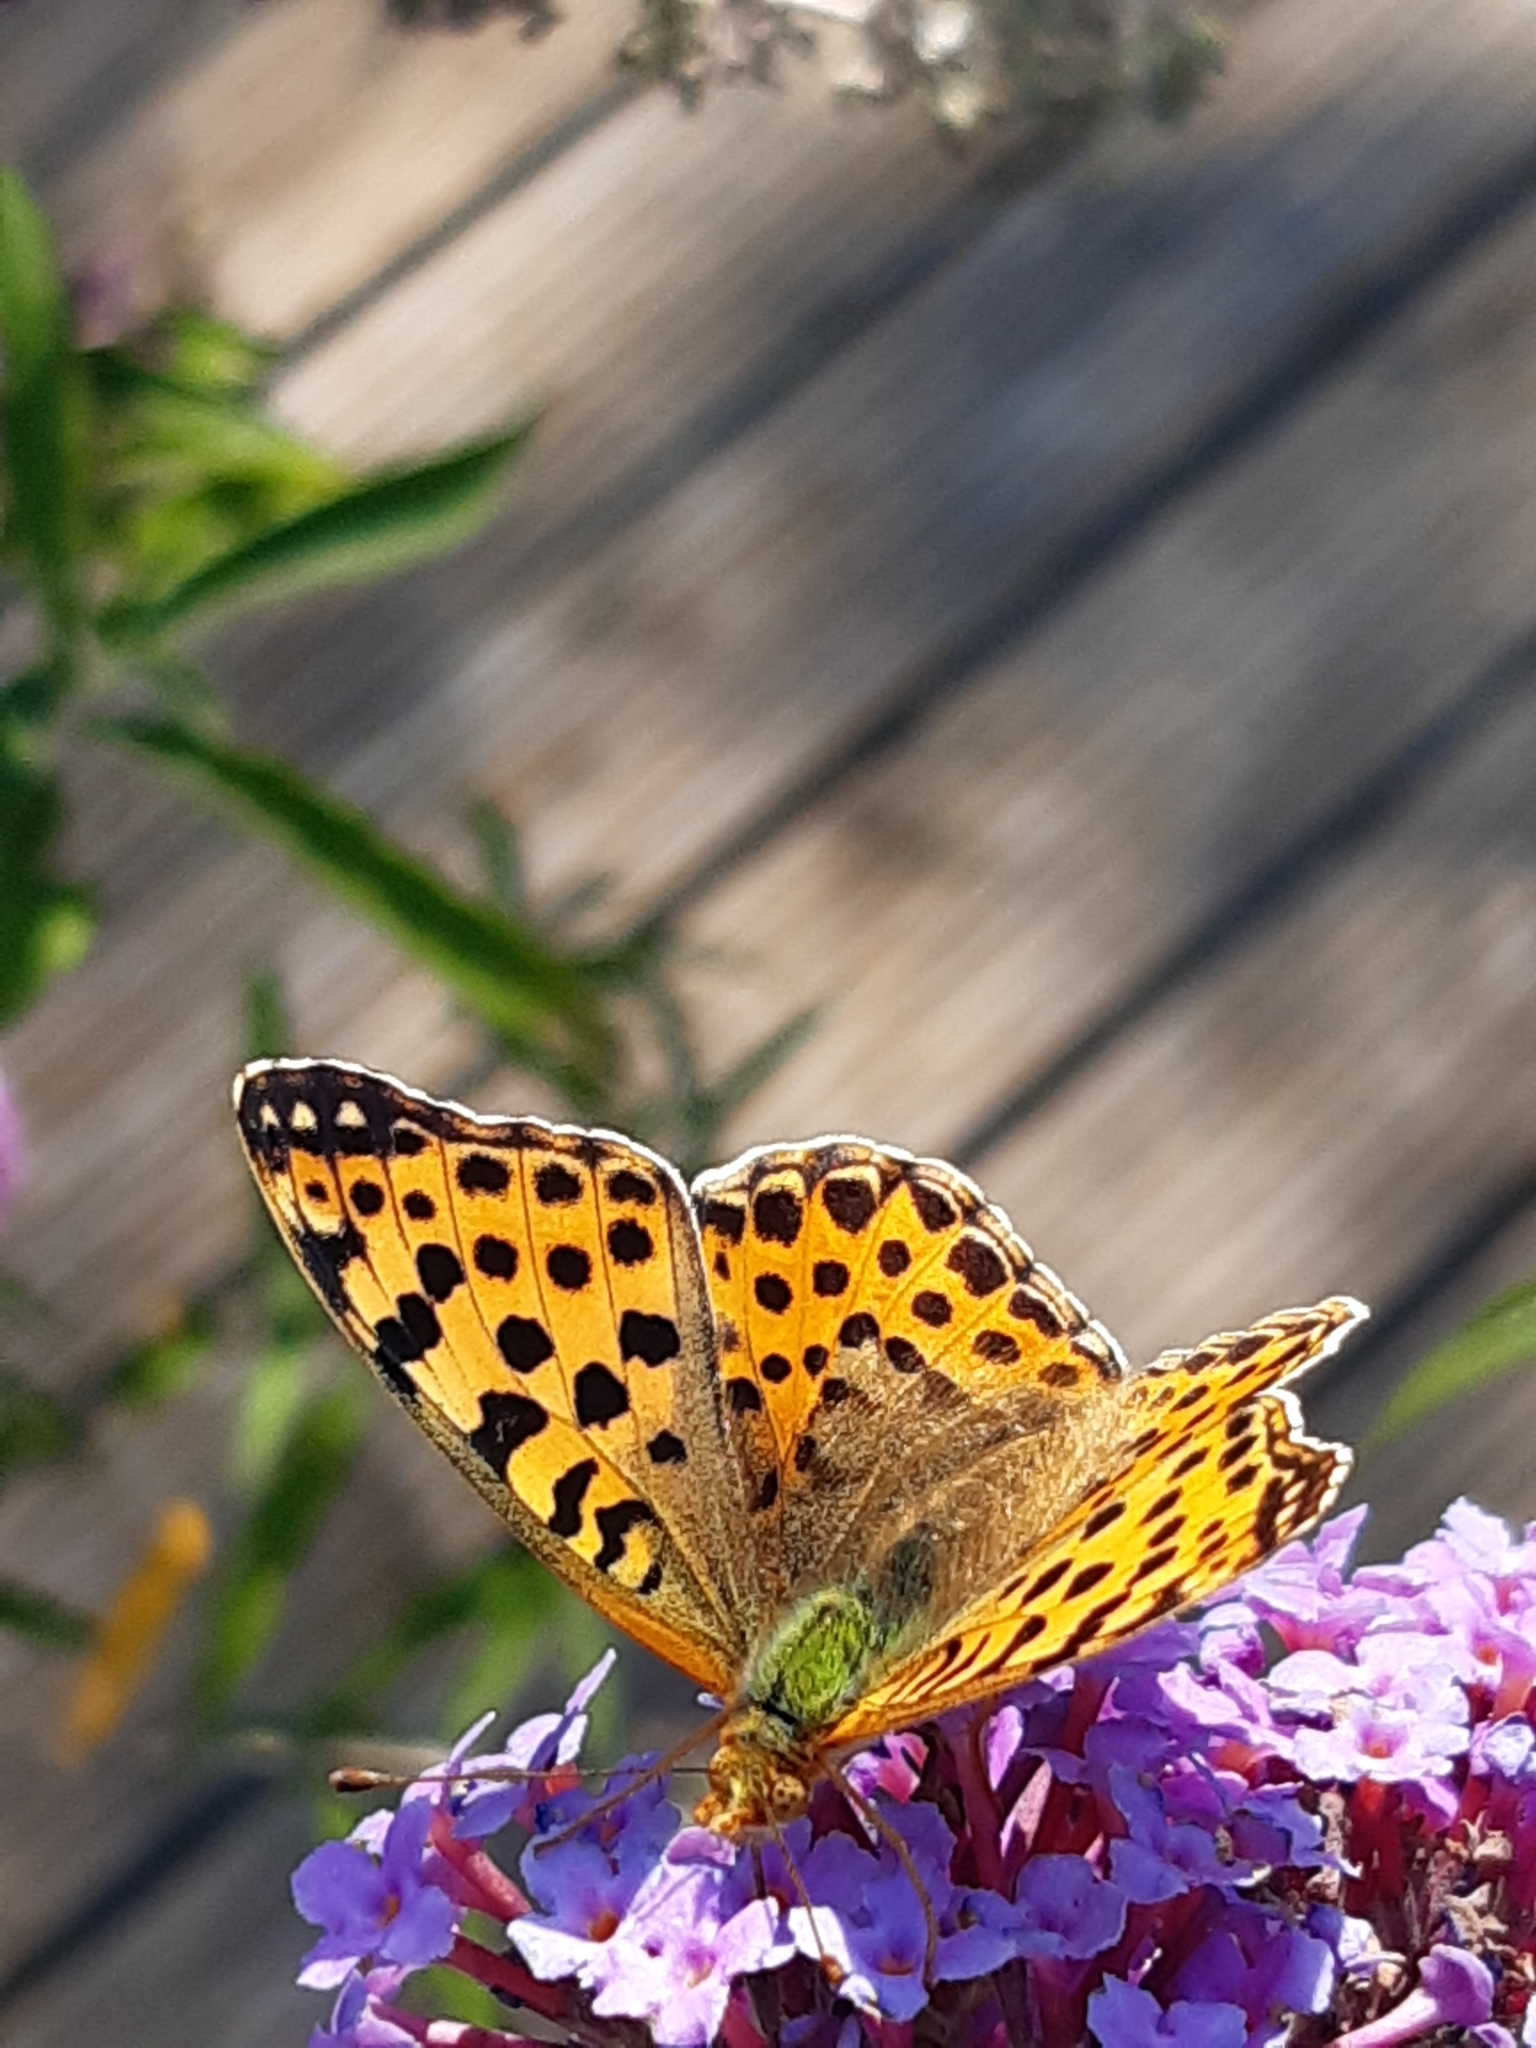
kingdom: Animalia
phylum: Arthropoda
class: Insecta
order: Lepidoptera
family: Nymphalidae
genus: Issoria
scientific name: Issoria lathonia
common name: Queen of spain fritillary
